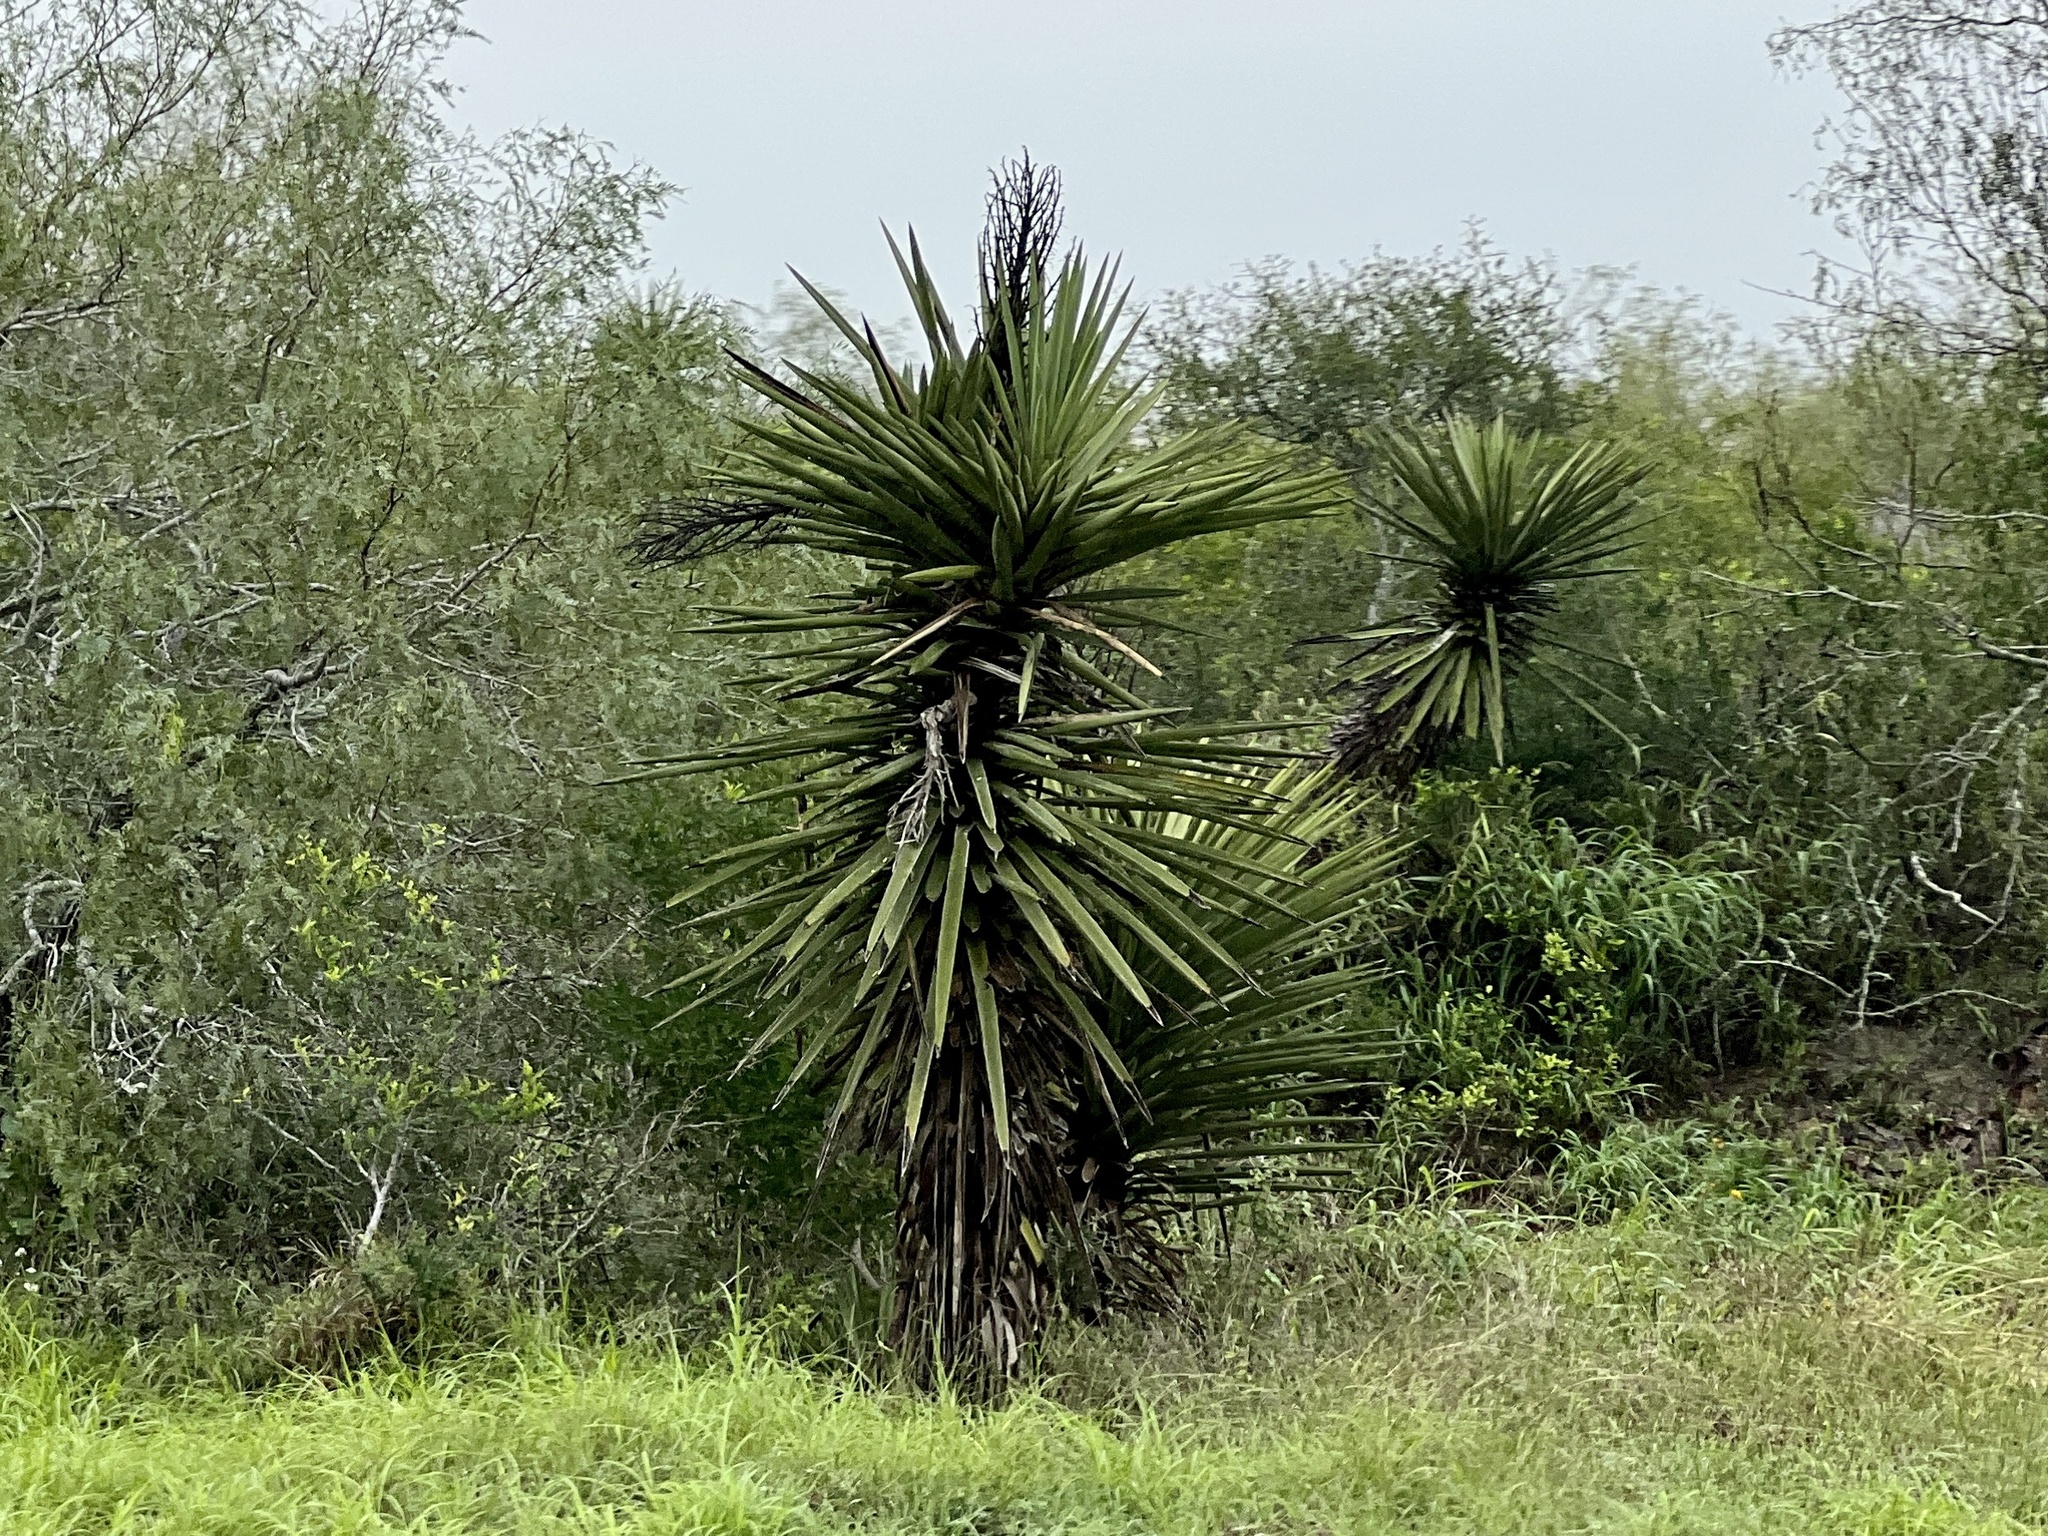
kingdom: Plantae
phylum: Tracheophyta
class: Liliopsida
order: Asparagales
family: Asparagaceae
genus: Yucca
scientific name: Yucca treculiana
